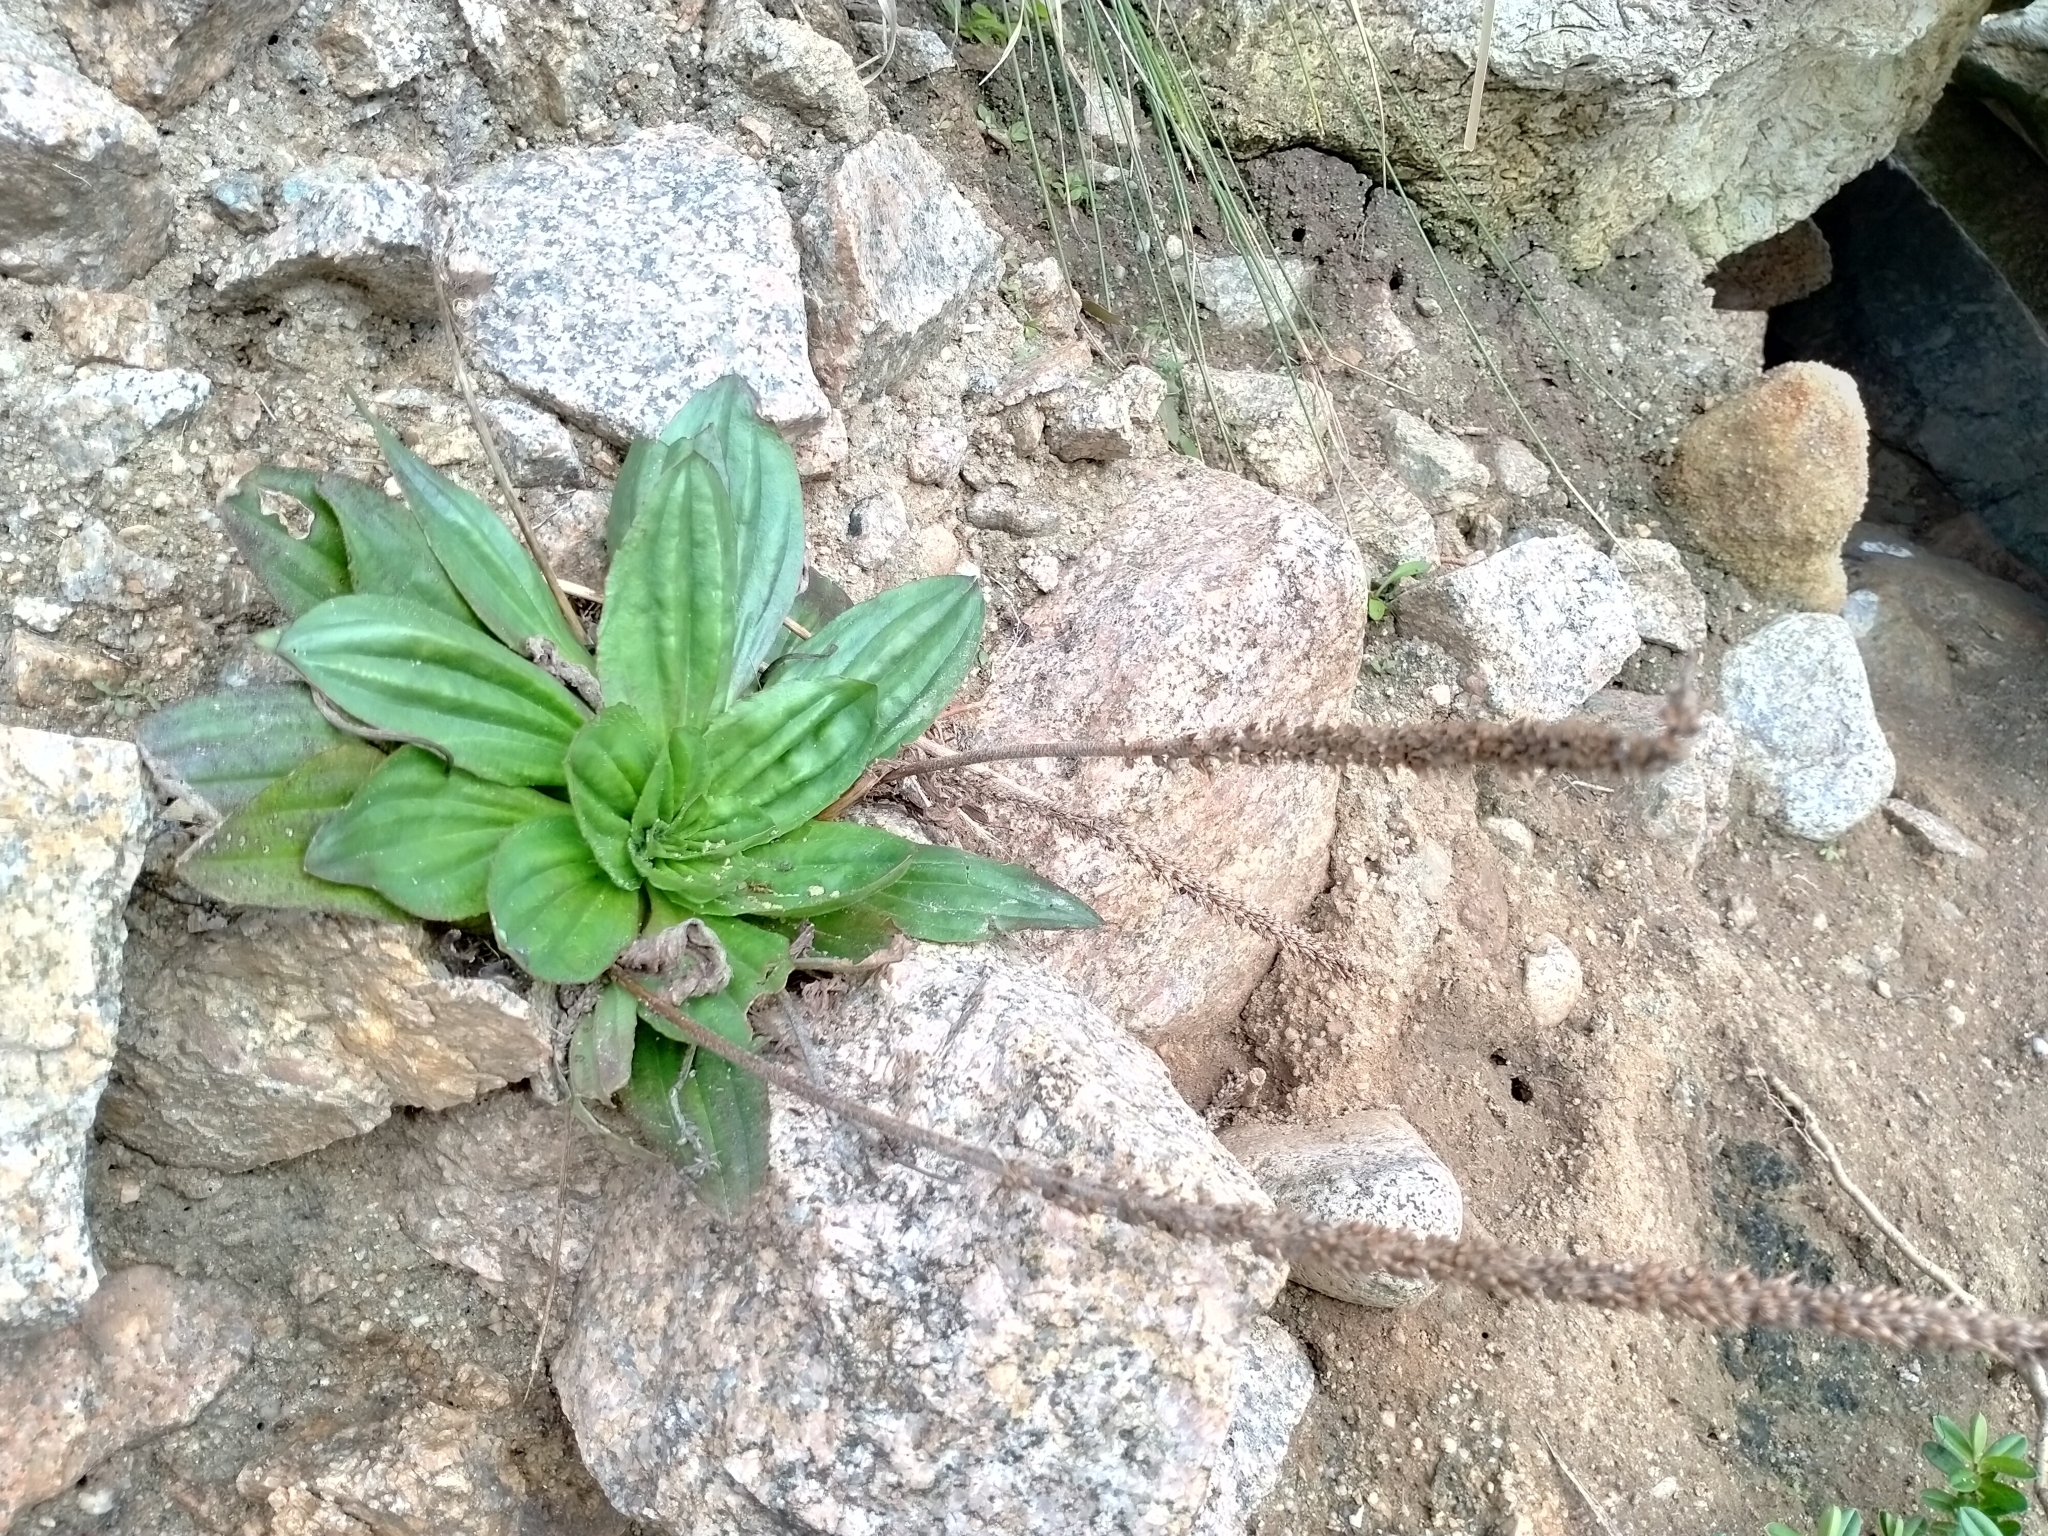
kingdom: Plantae
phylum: Tracheophyta
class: Magnoliopsida
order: Lamiales
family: Plantaginaceae
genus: Plantago
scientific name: Plantago australis
